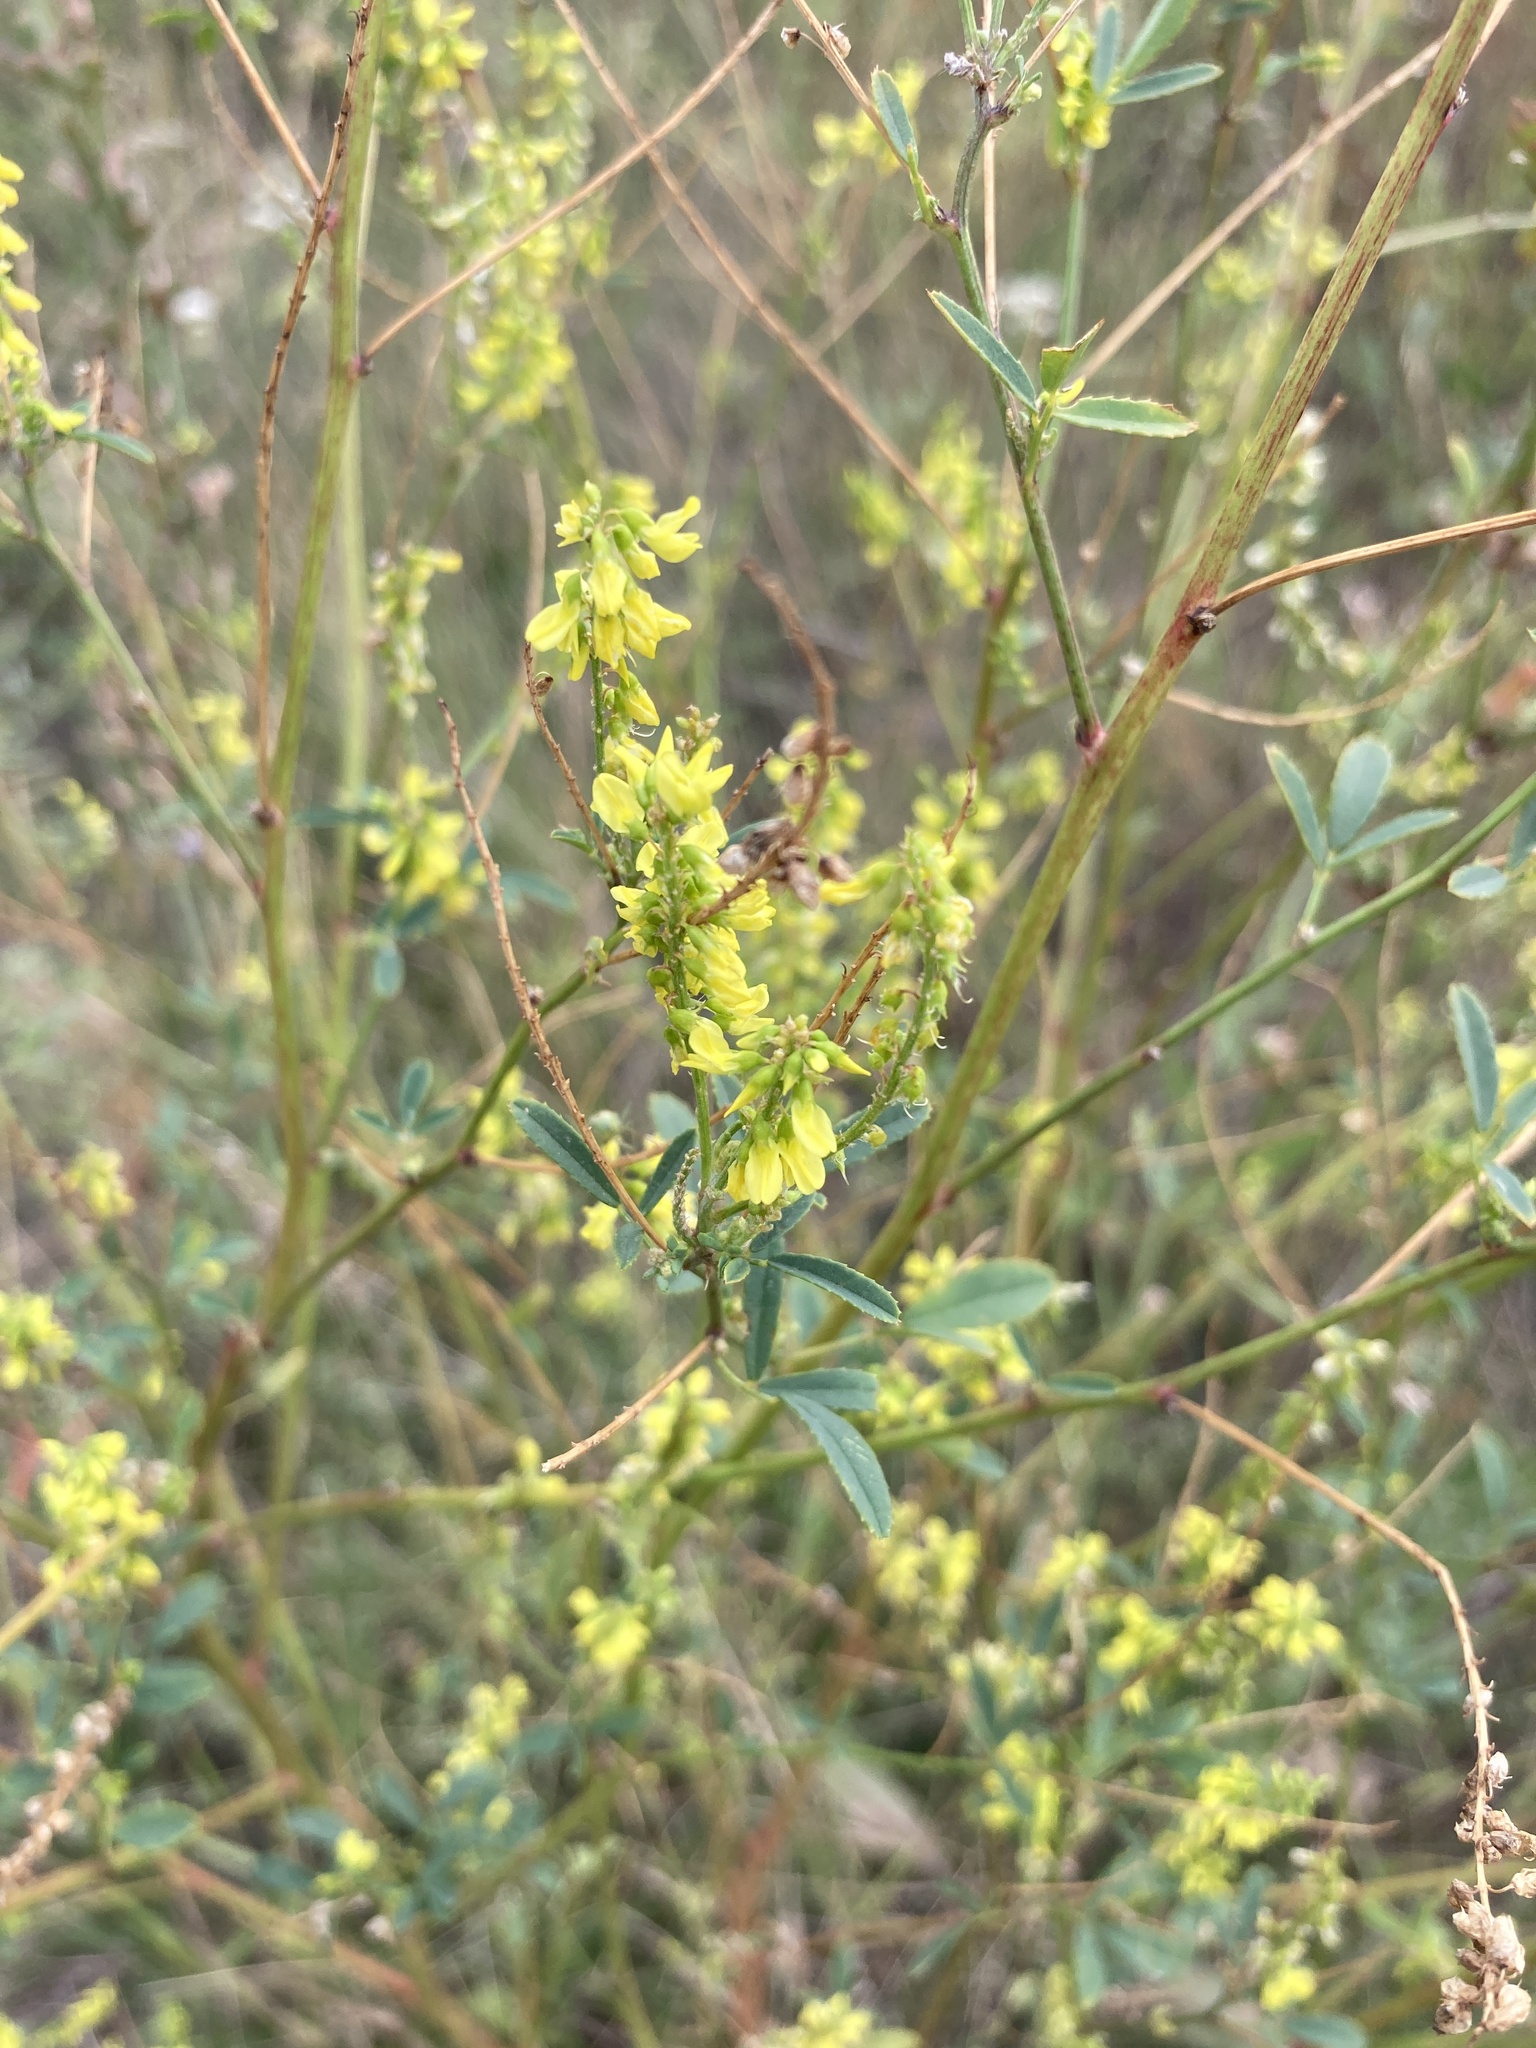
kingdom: Plantae
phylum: Tracheophyta
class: Magnoliopsida
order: Fabales
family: Fabaceae
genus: Melilotus
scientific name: Melilotus officinalis
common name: Sweetclover
